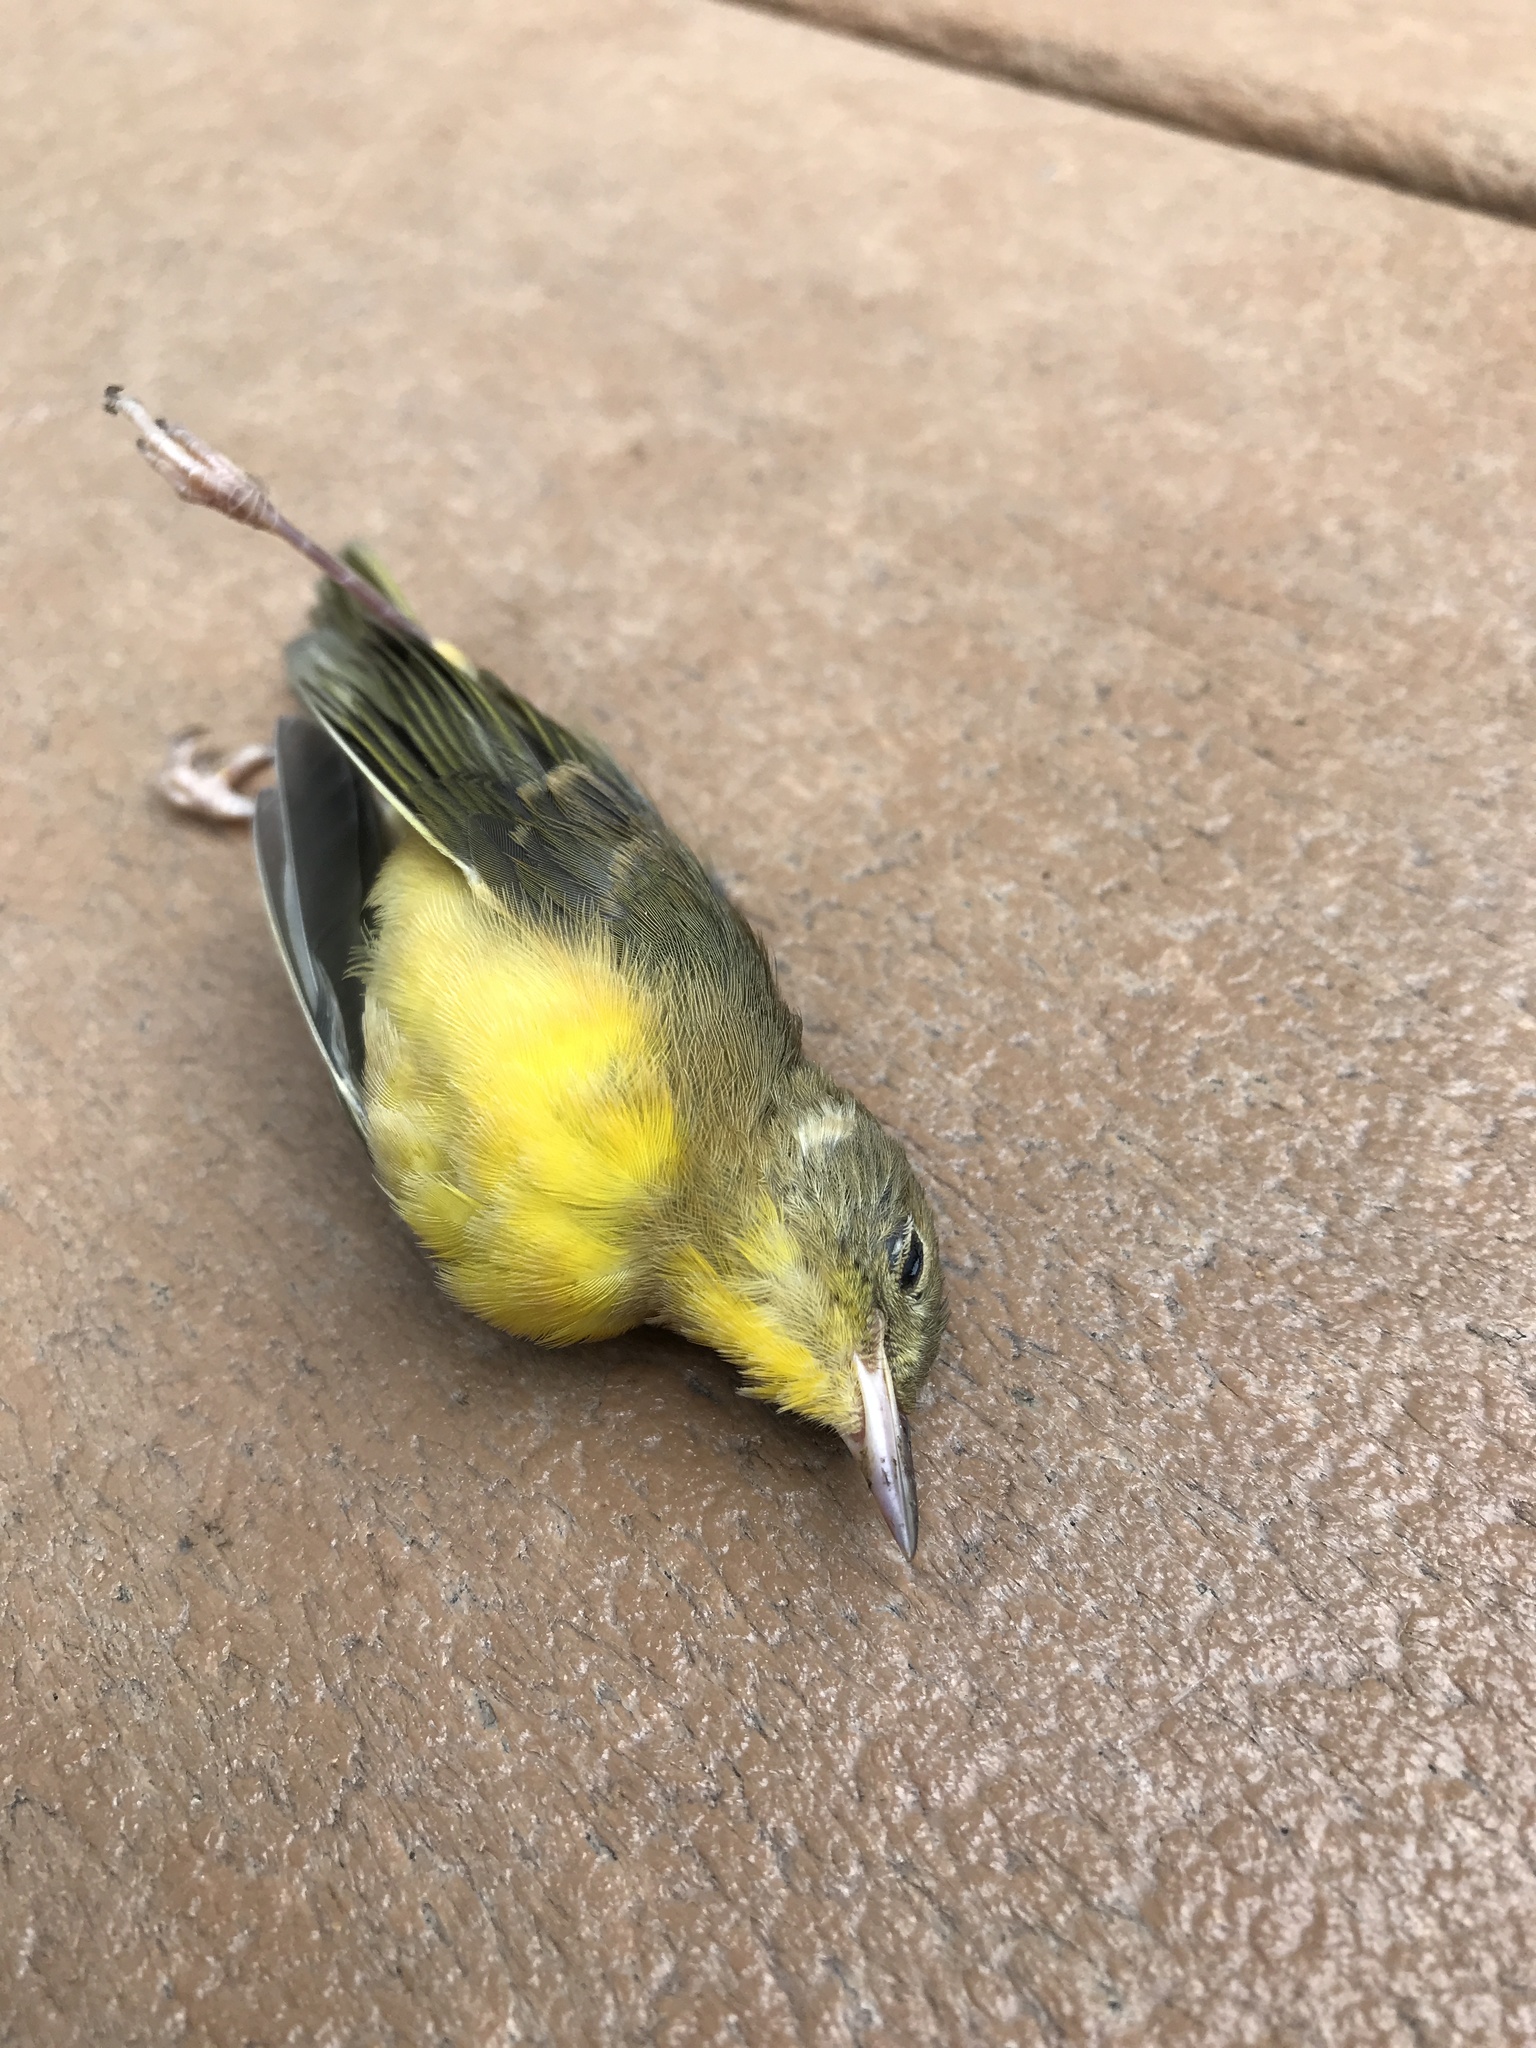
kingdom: Animalia
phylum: Chordata
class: Aves
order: Passeriformes
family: Parulidae
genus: Geothlypis
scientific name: Geothlypis trichas
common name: Common yellowthroat
